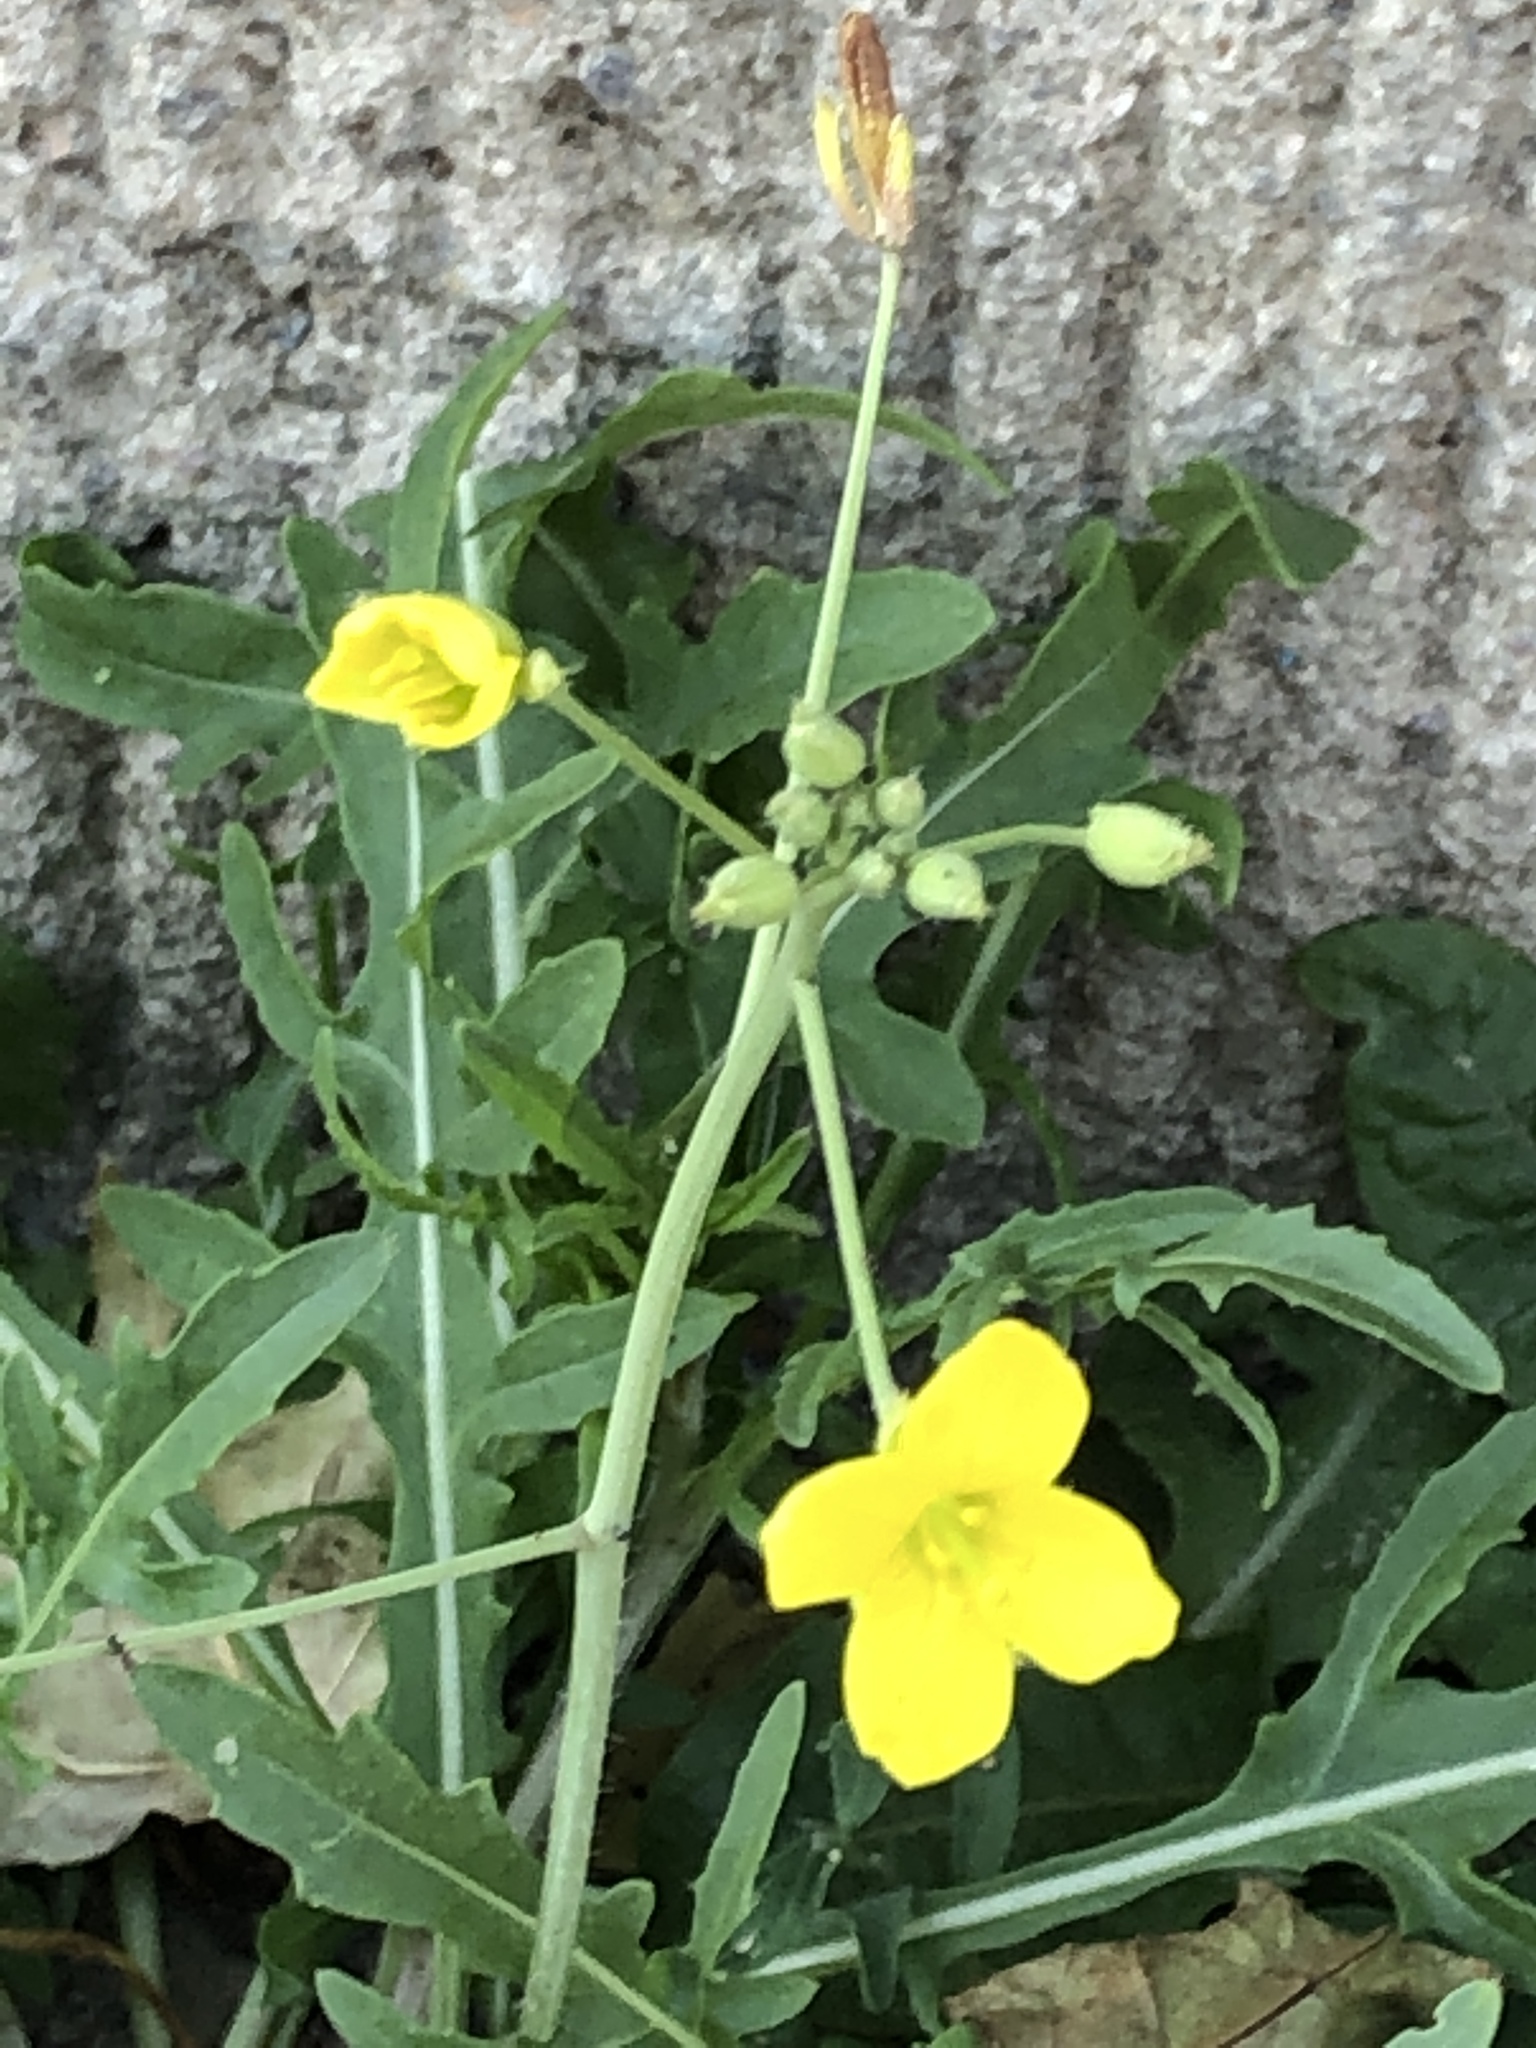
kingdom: Plantae
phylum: Tracheophyta
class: Magnoliopsida
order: Brassicales
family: Brassicaceae
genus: Diplotaxis
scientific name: Diplotaxis tenuifolia
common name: Perennial wall-rocket
